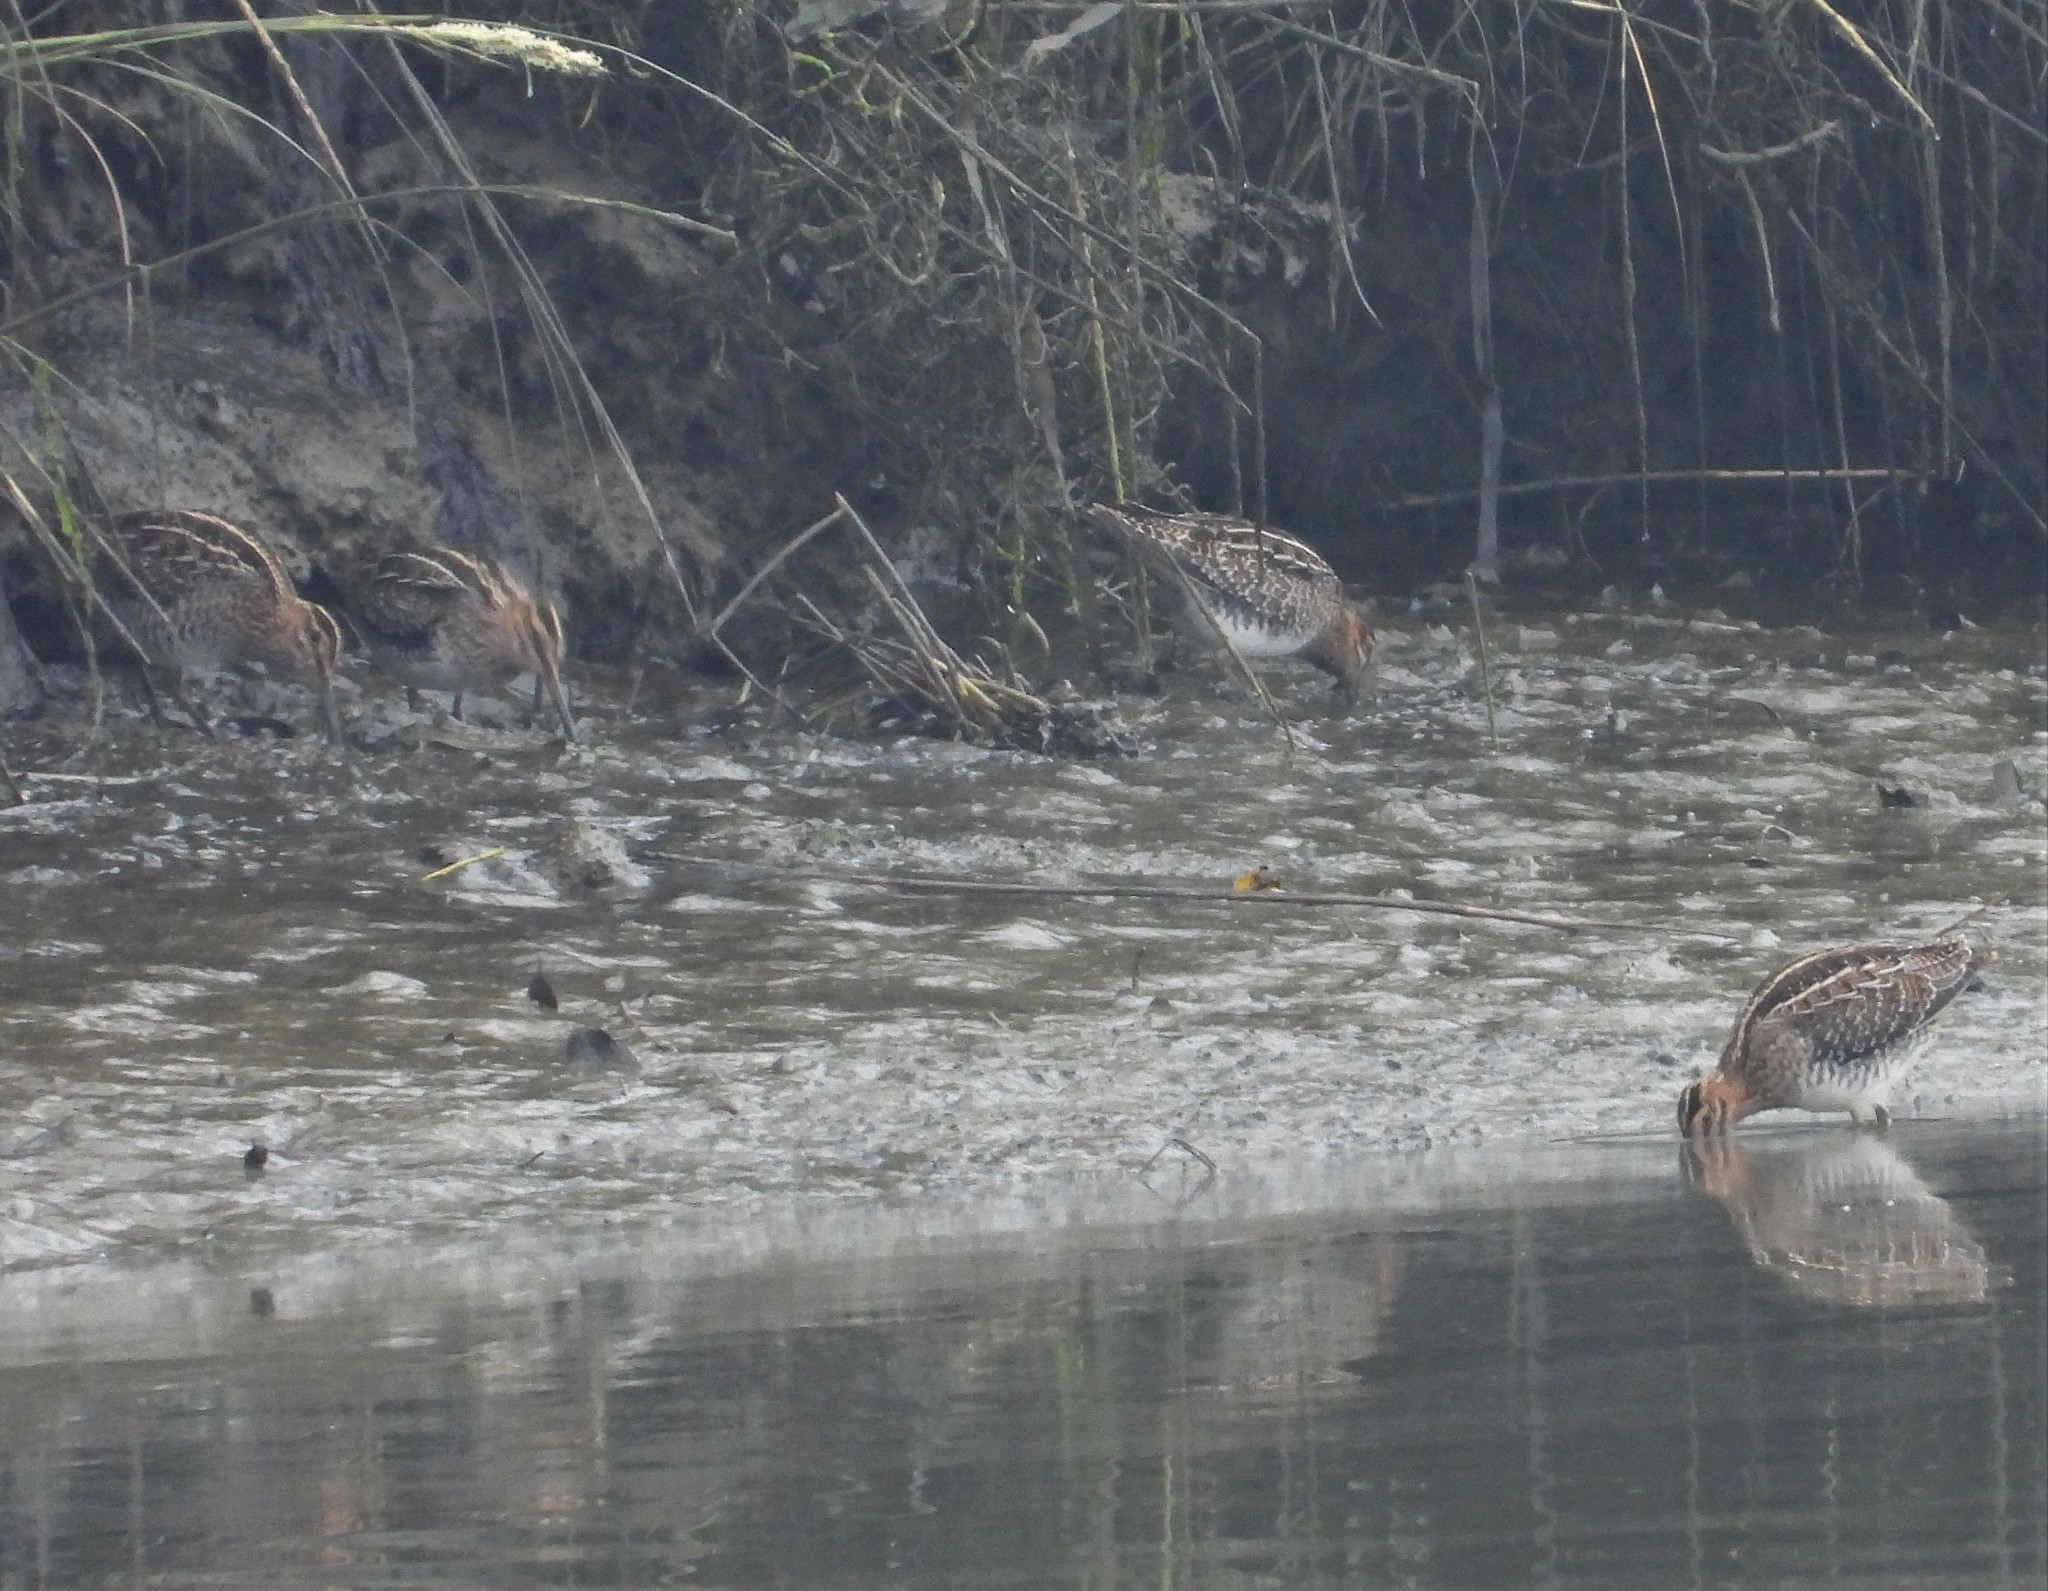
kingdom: Animalia
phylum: Chordata
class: Aves
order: Charadriiformes
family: Scolopacidae
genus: Gallinago
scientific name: Gallinago delicata
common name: Wilson's snipe
